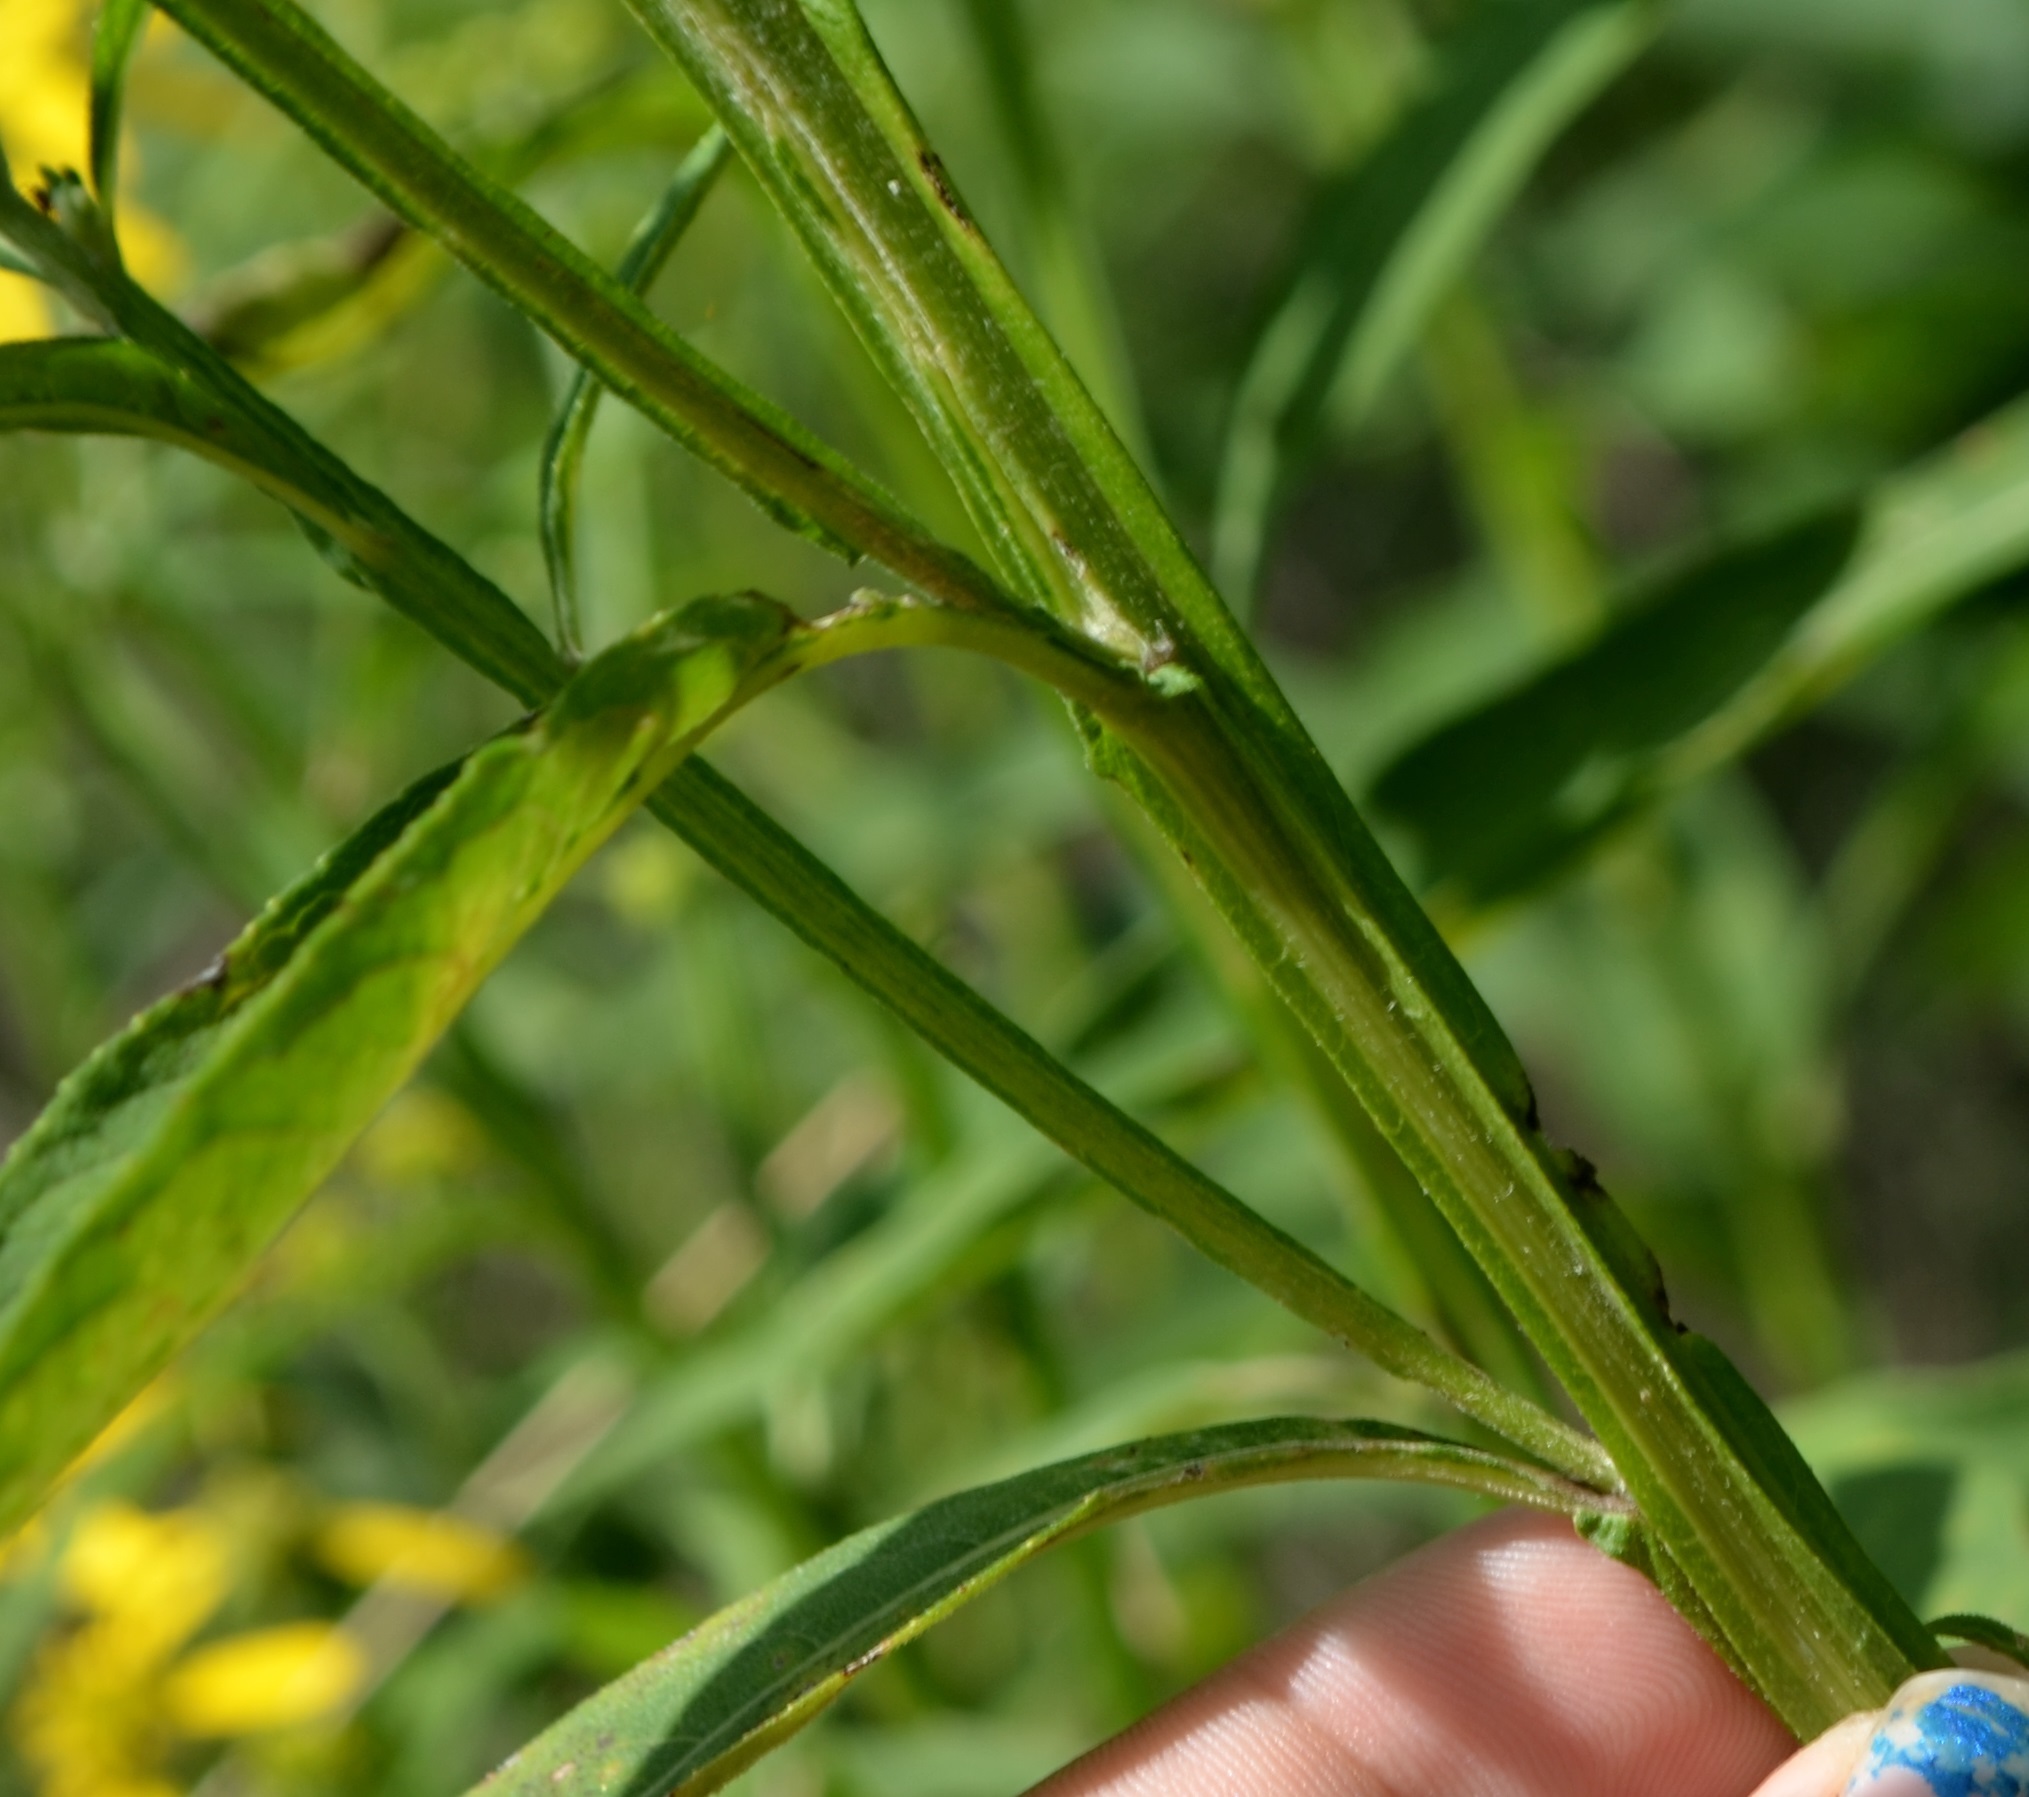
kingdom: Plantae
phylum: Tracheophyta
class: Magnoliopsida
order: Asterales
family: Asteraceae
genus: Verbesina
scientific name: Verbesina alternifolia
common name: Wingstem
